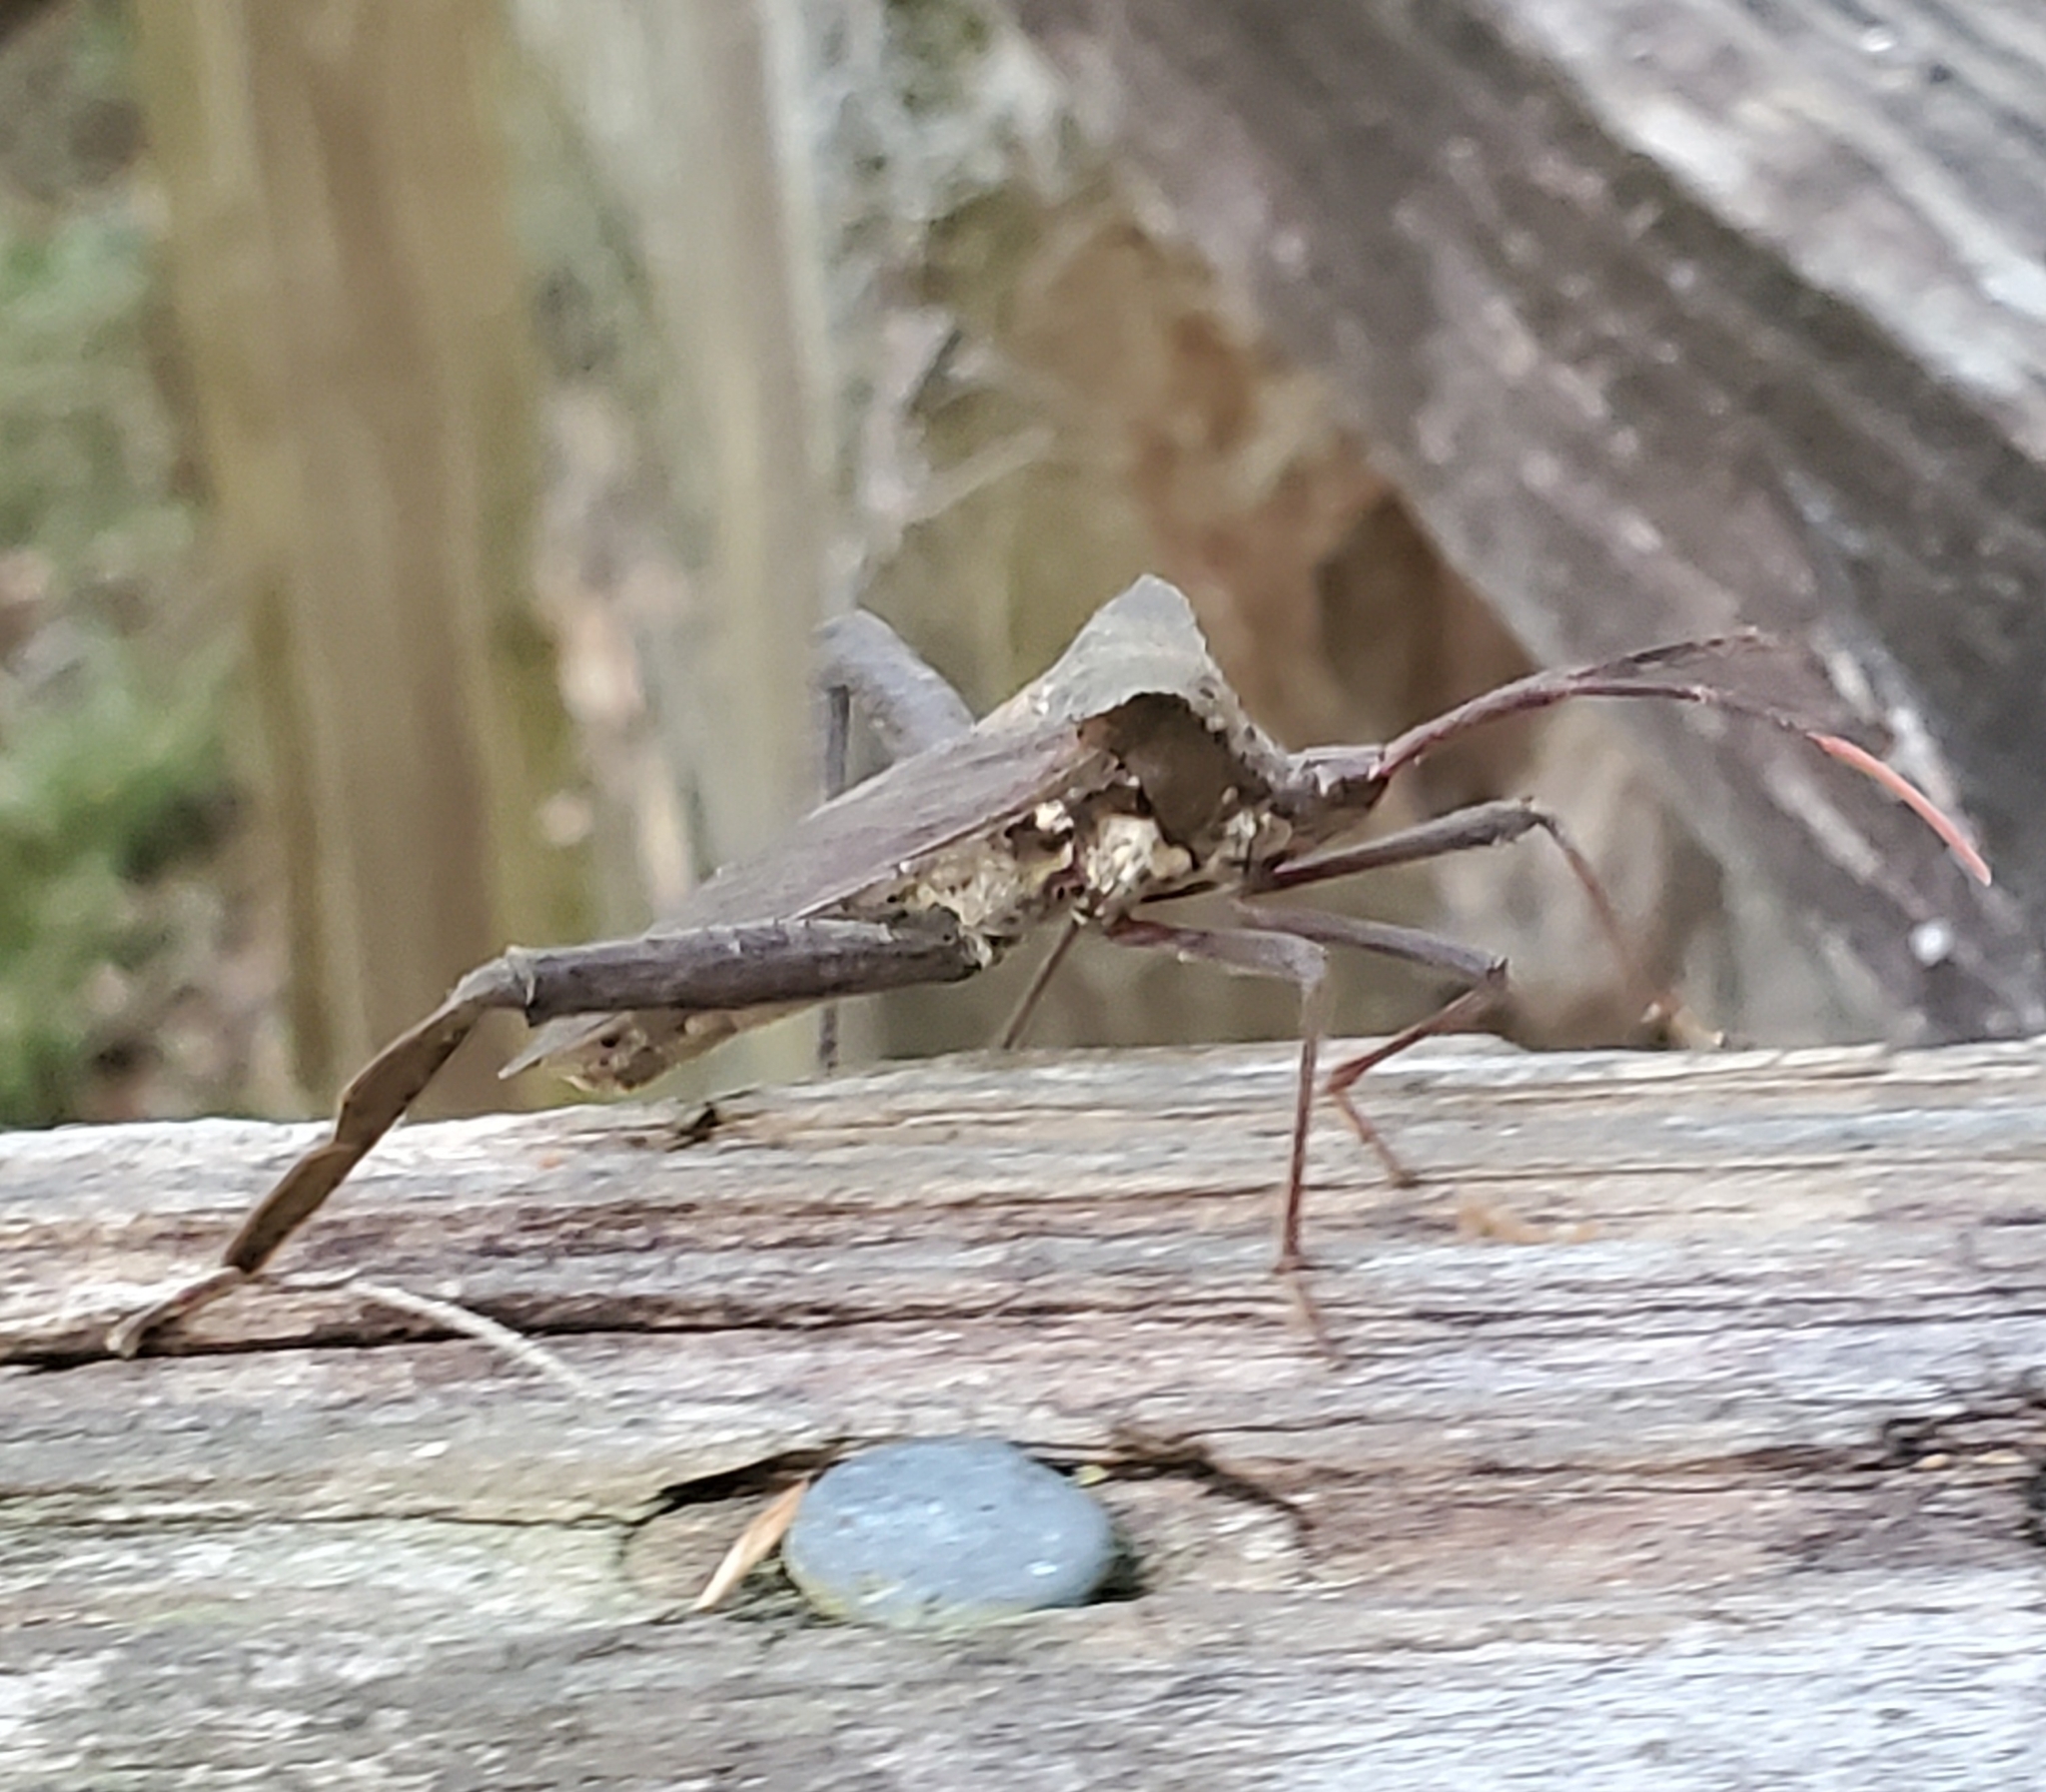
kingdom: Animalia
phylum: Arthropoda
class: Insecta
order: Hemiptera
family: Coreidae
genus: Acanthocephala
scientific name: Acanthocephala declivis
